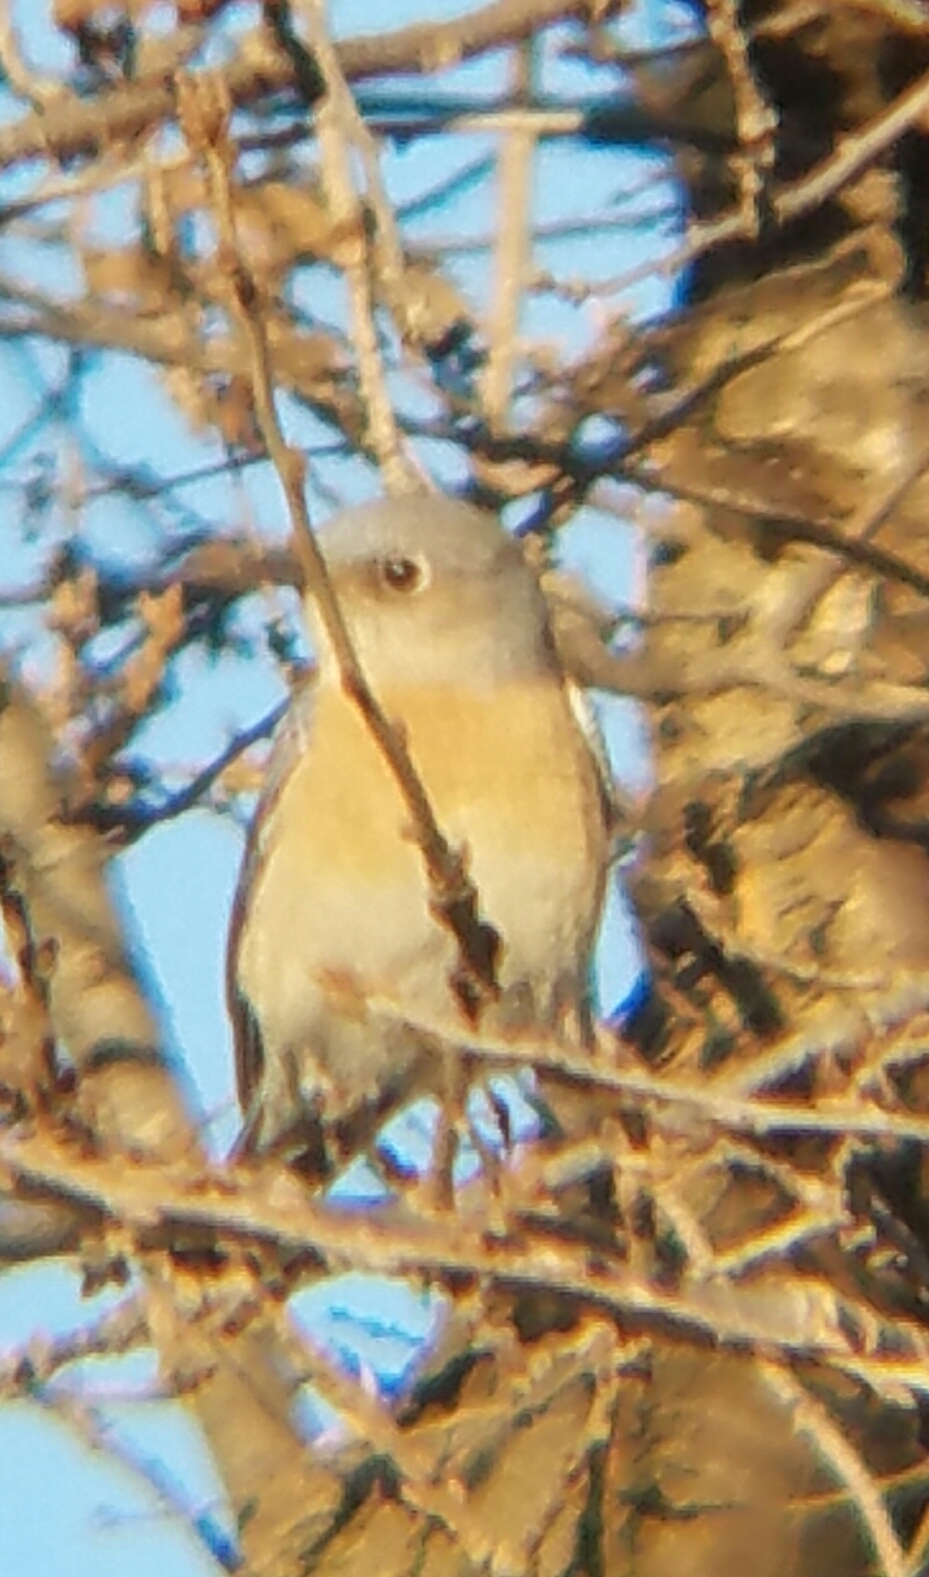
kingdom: Animalia
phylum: Chordata
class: Aves
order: Passeriformes
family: Turdidae
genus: Sialia
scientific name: Sialia mexicana
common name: Western bluebird
